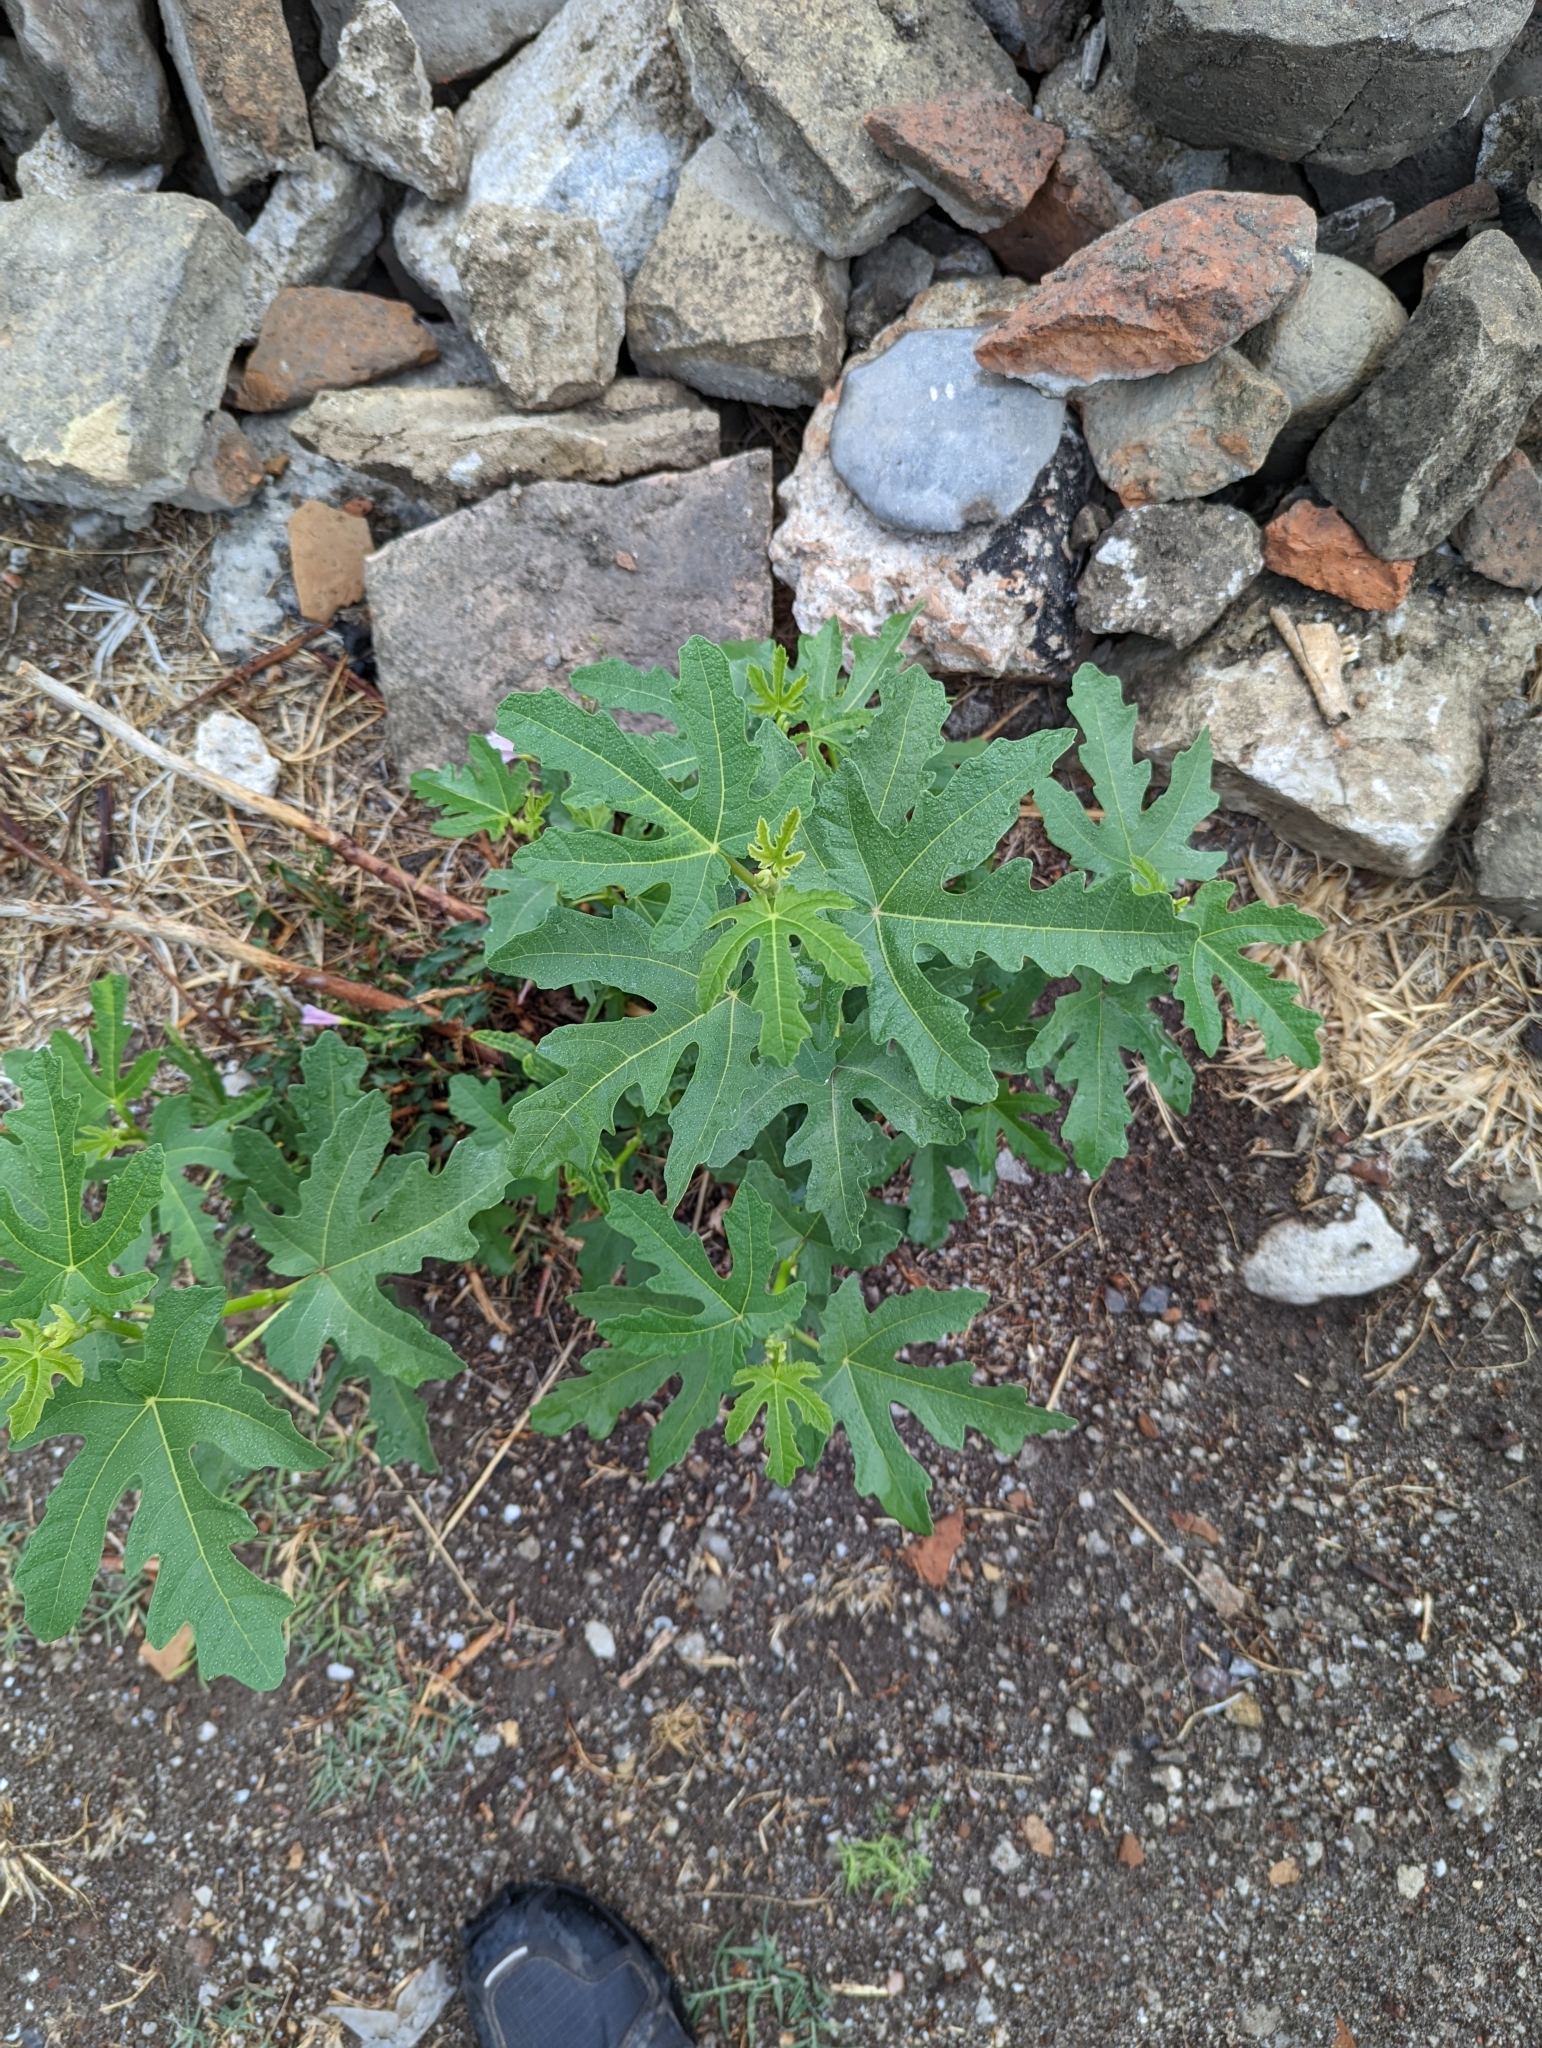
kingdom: Plantae
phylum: Tracheophyta
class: Magnoliopsida
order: Rosales
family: Moraceae
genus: Ficus
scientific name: Ficus carica
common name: Fig
